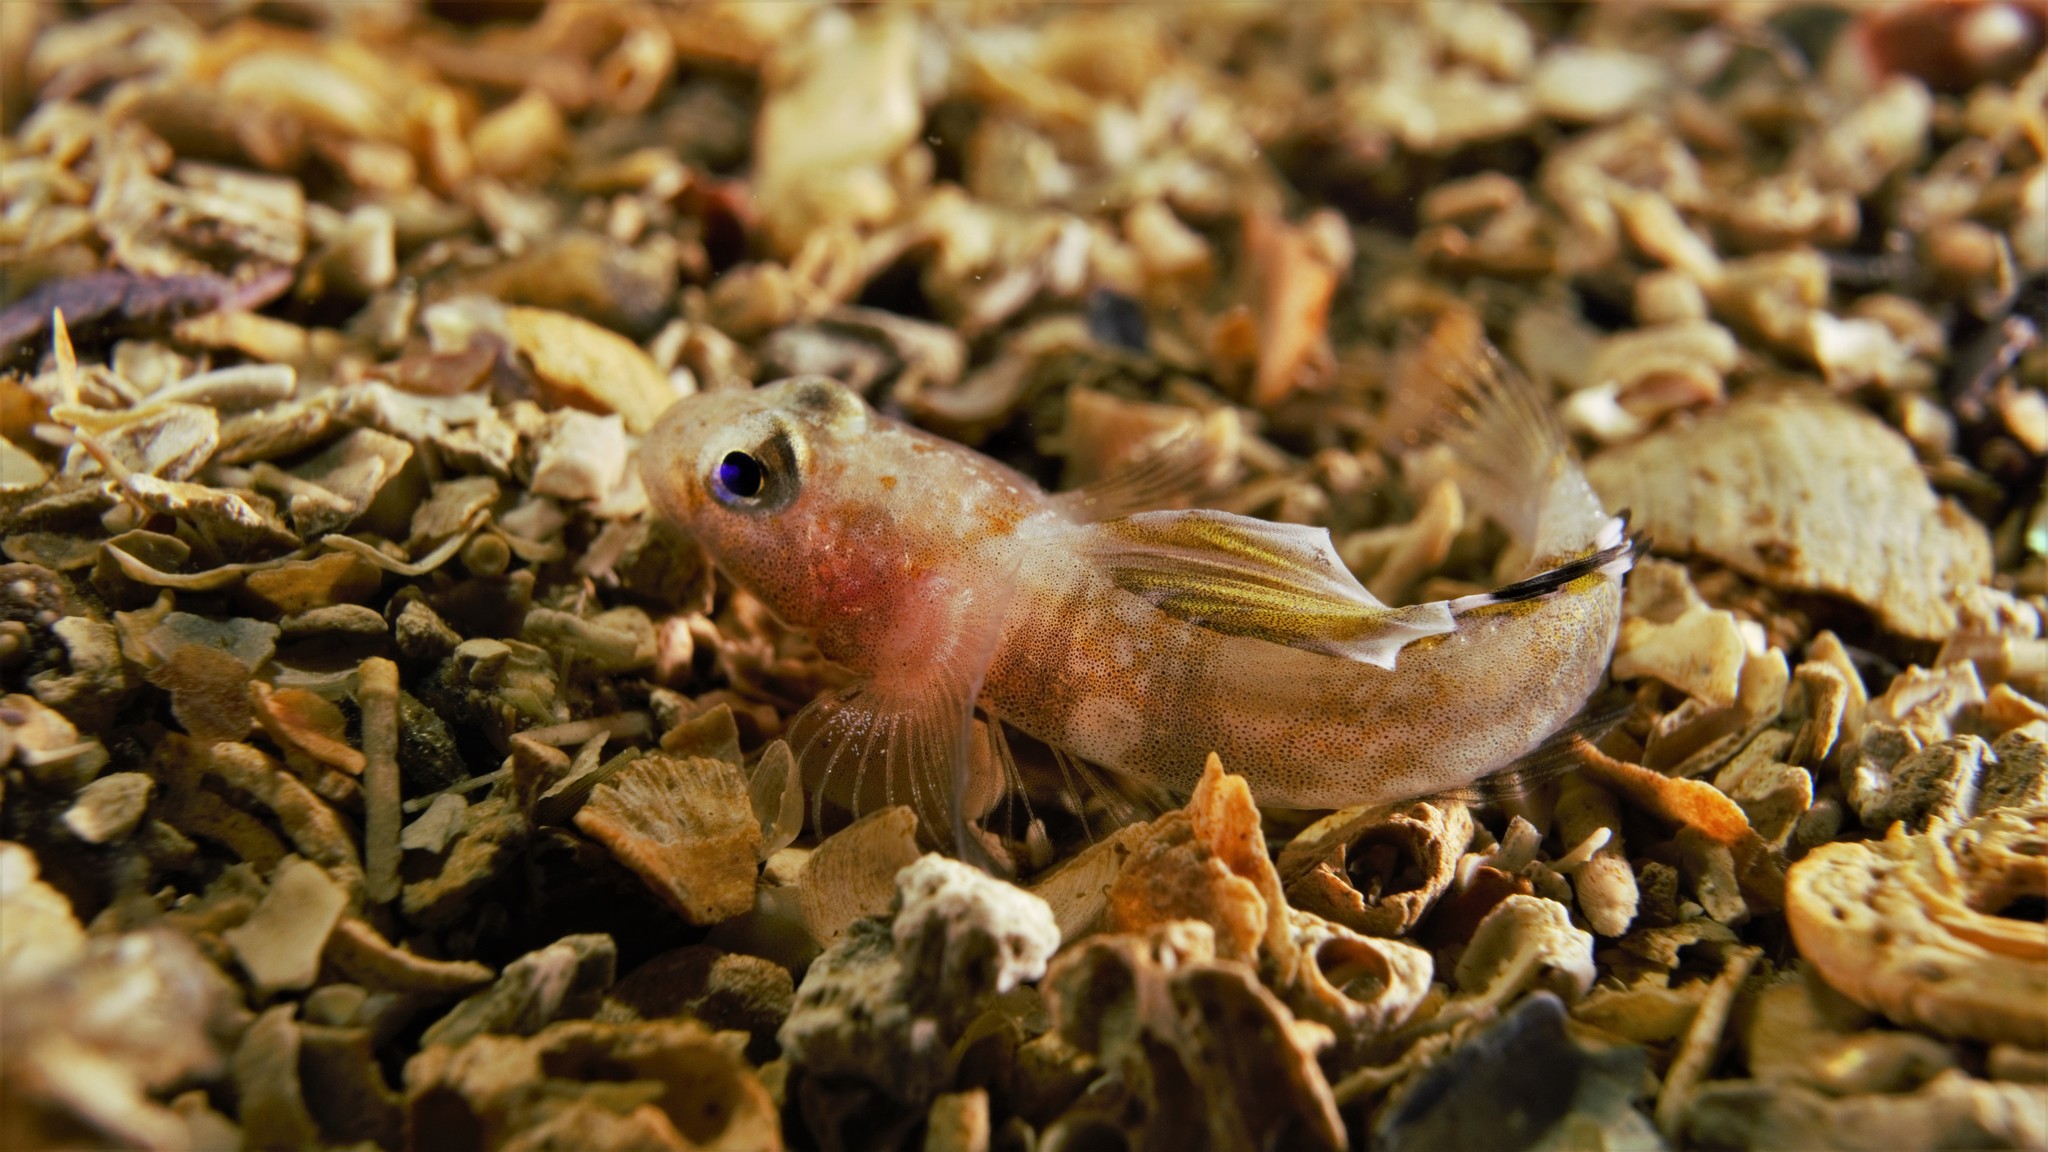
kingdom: Animalia
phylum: Chordata
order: Perciformes
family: Gobiidae
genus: Lebetus
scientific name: Lebetus scorpioides
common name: Diminutive goby
